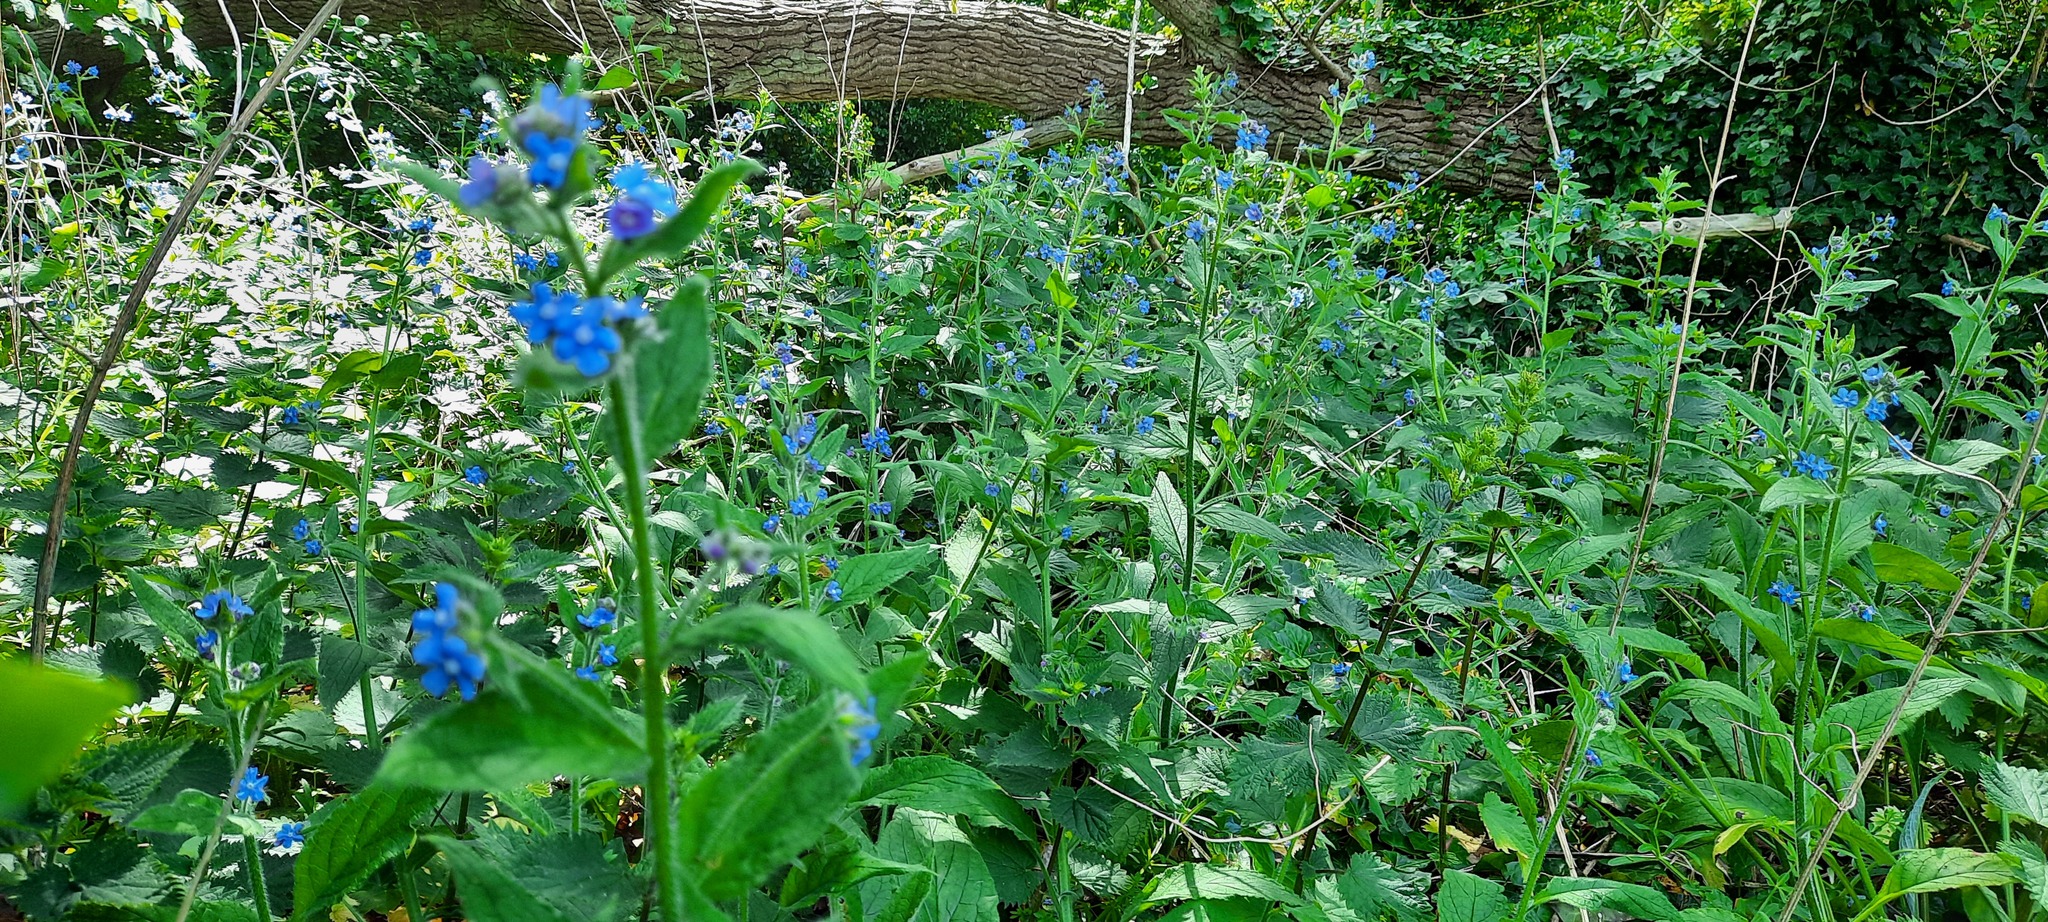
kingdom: Plantae
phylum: Tracheophyta
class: Magnoliopsida
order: Boraginales
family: Boraginaceae
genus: Pentaglottis
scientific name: Pentaglottis sempervirens
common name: Green alkanet
